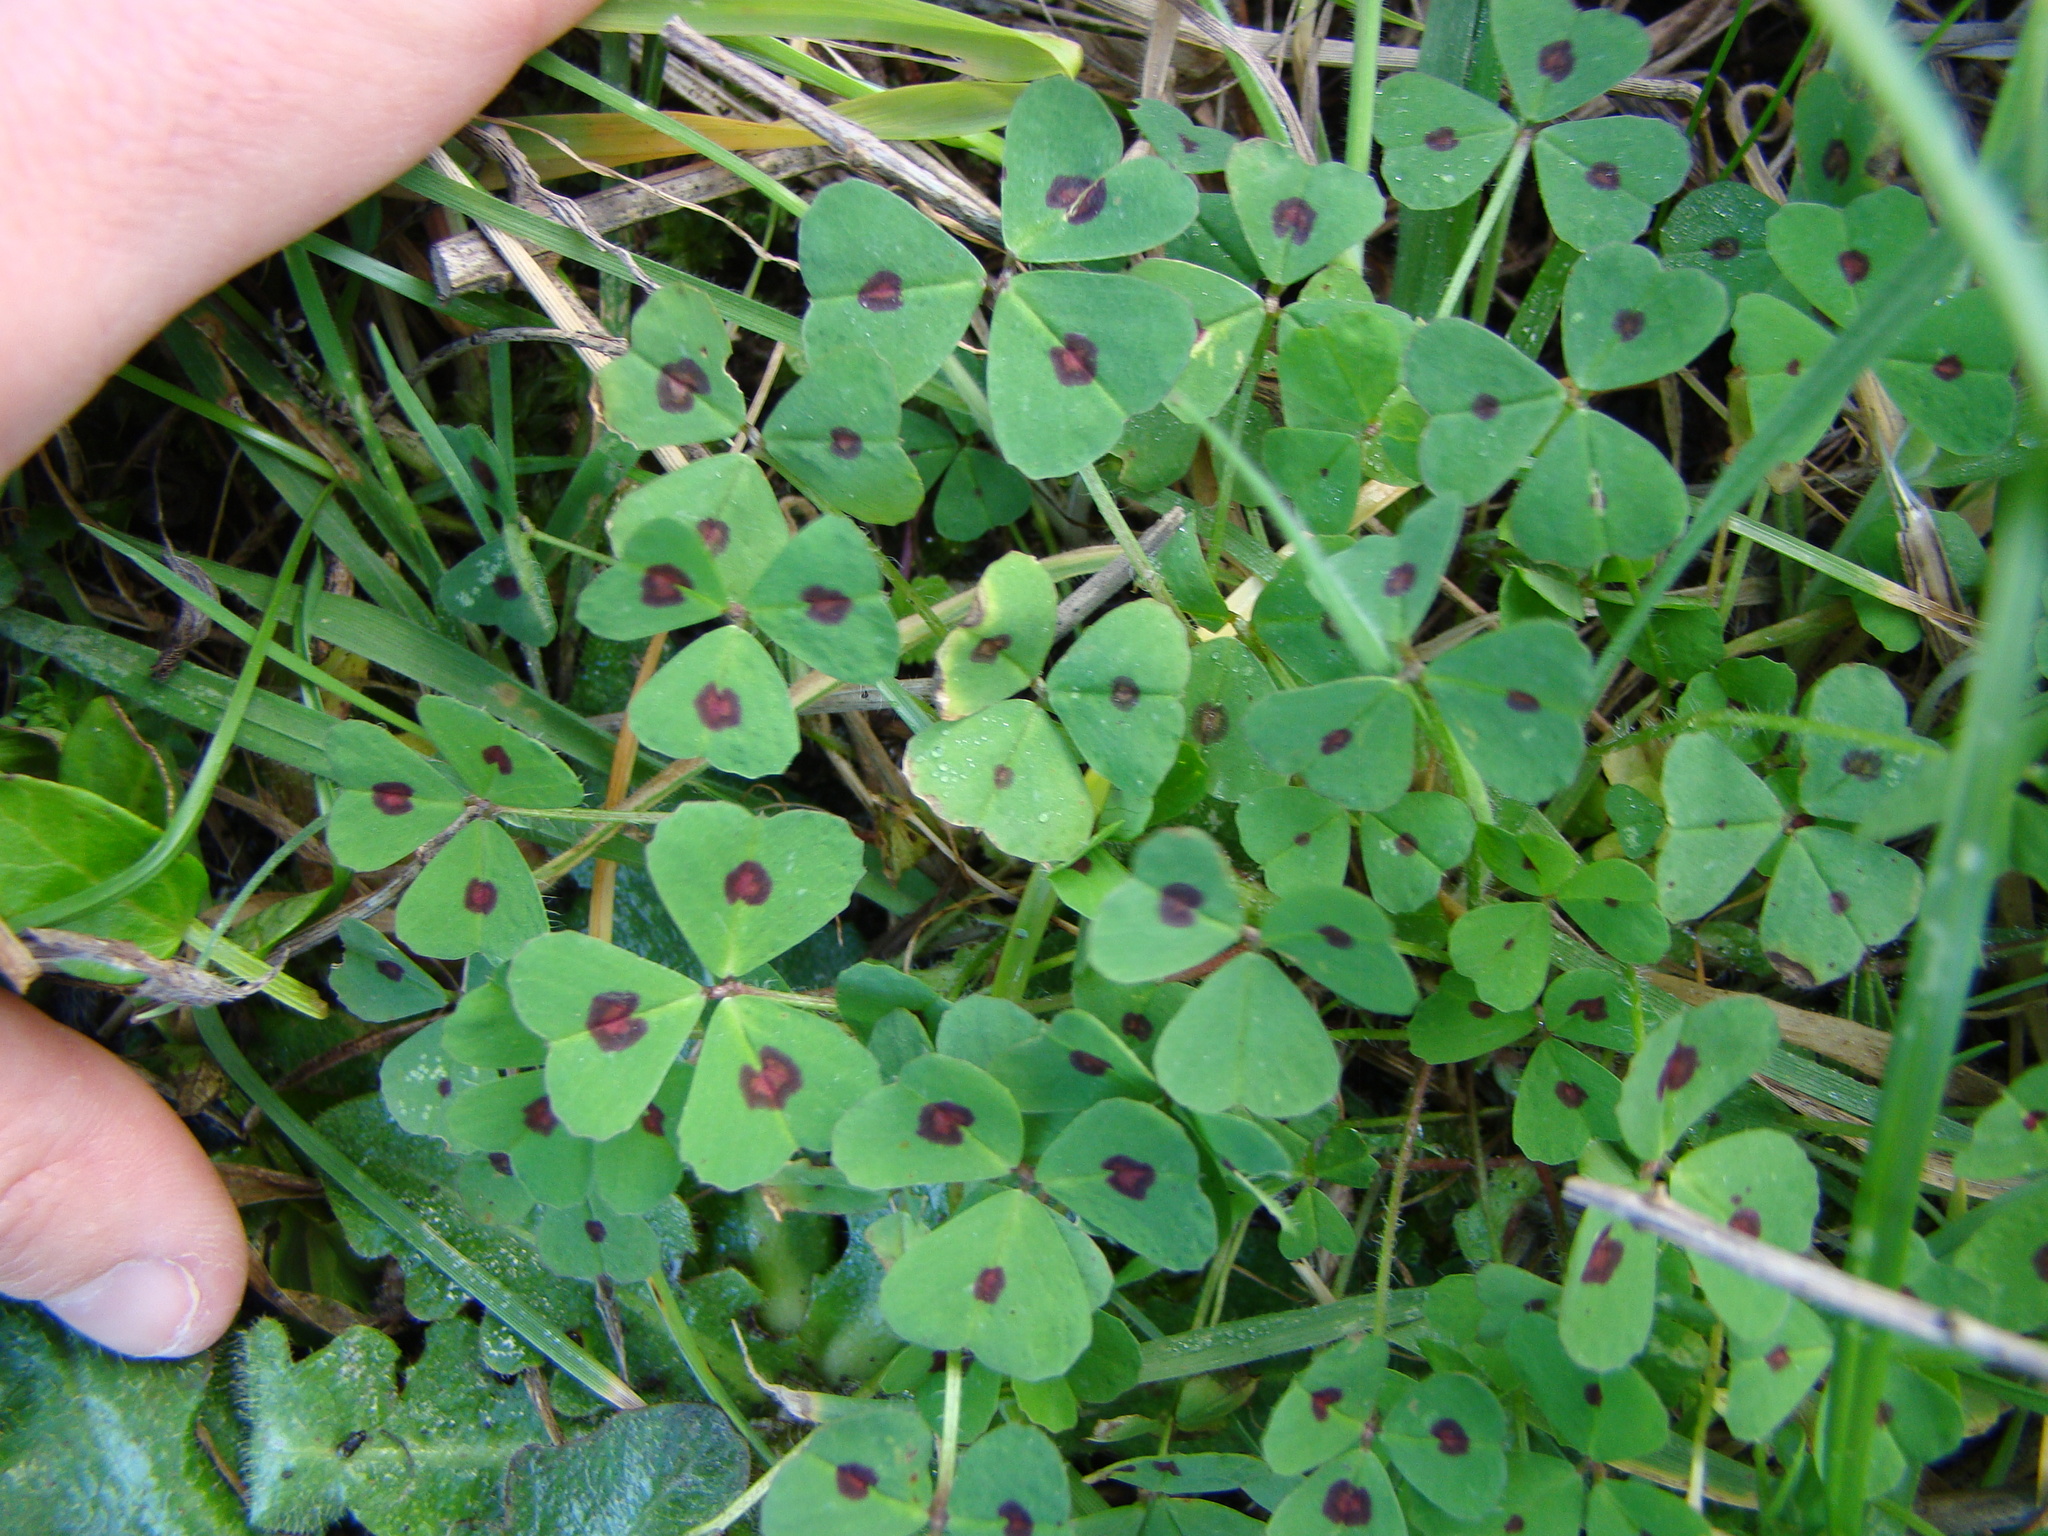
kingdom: Plantae
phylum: Tracheophyta
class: Magnoliopsida
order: Fabales
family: Fabaceae
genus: Medicago
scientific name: Medicago arabica
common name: Spotted medick
